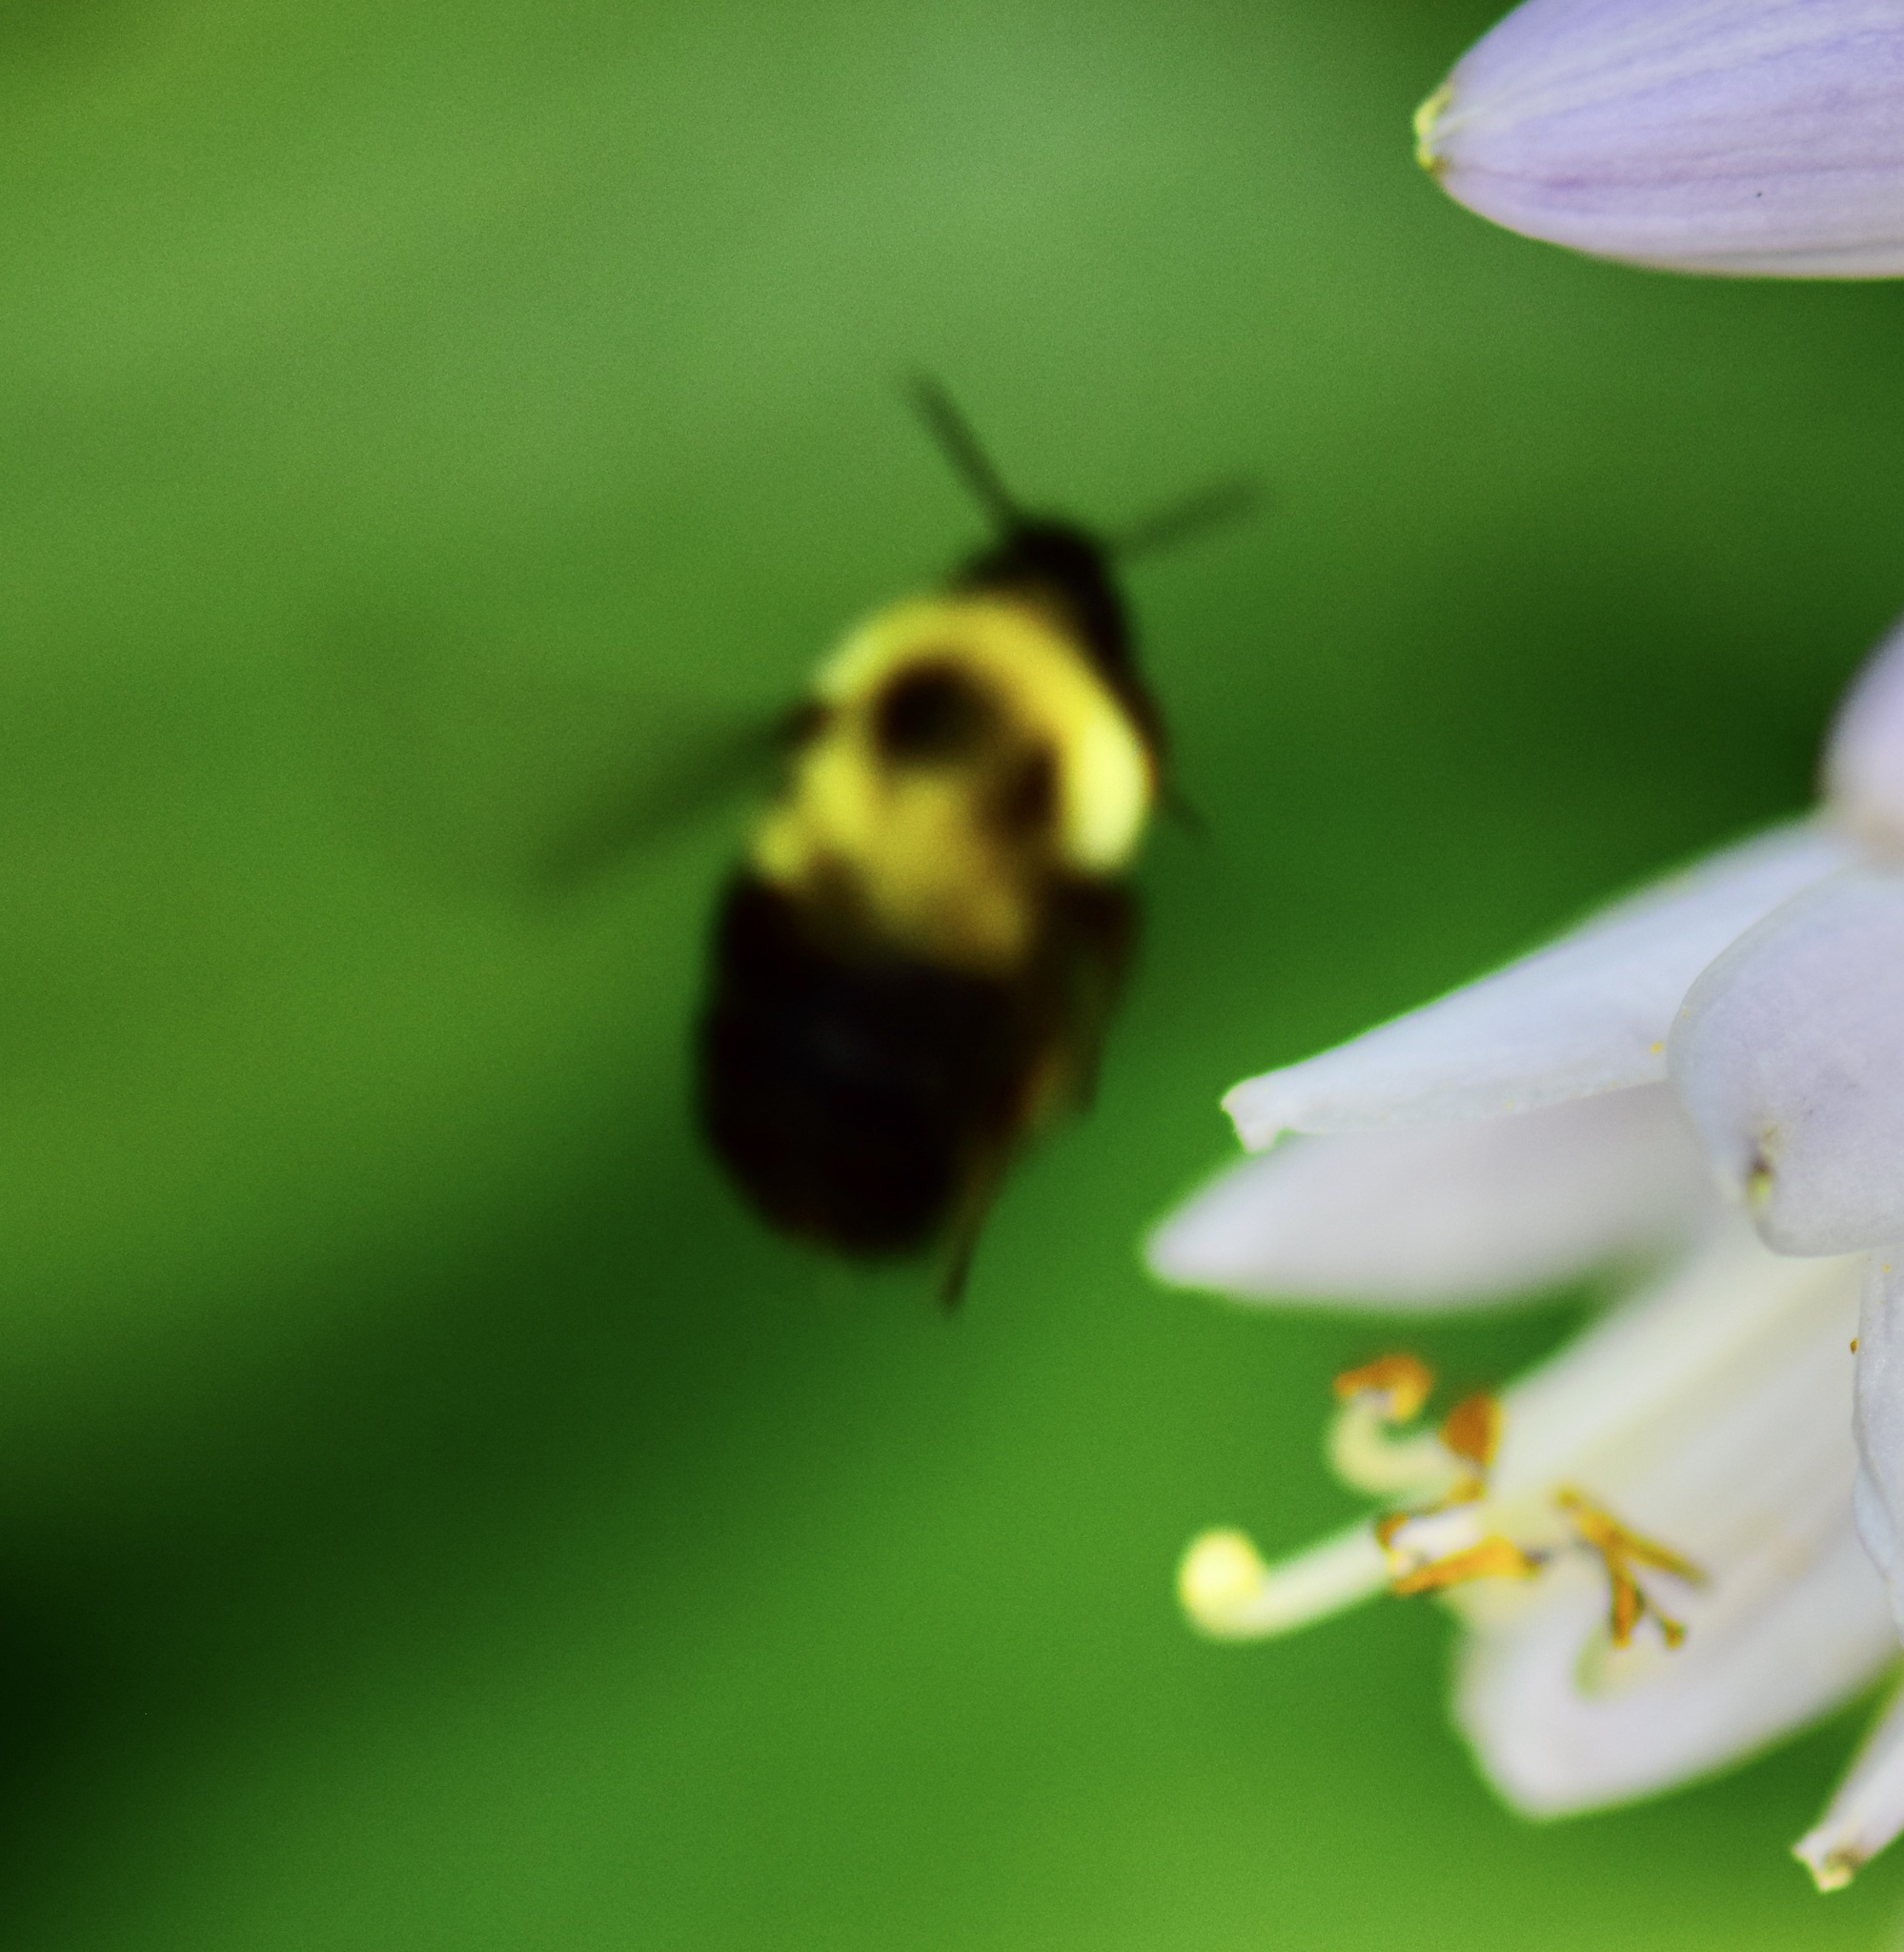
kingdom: Animalia
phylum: Arthropoda
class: Insecta
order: Hymenoptera
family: Apidae
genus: Bombus
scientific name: Bombus bimaculatus
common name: Two-spotted bumble bee
